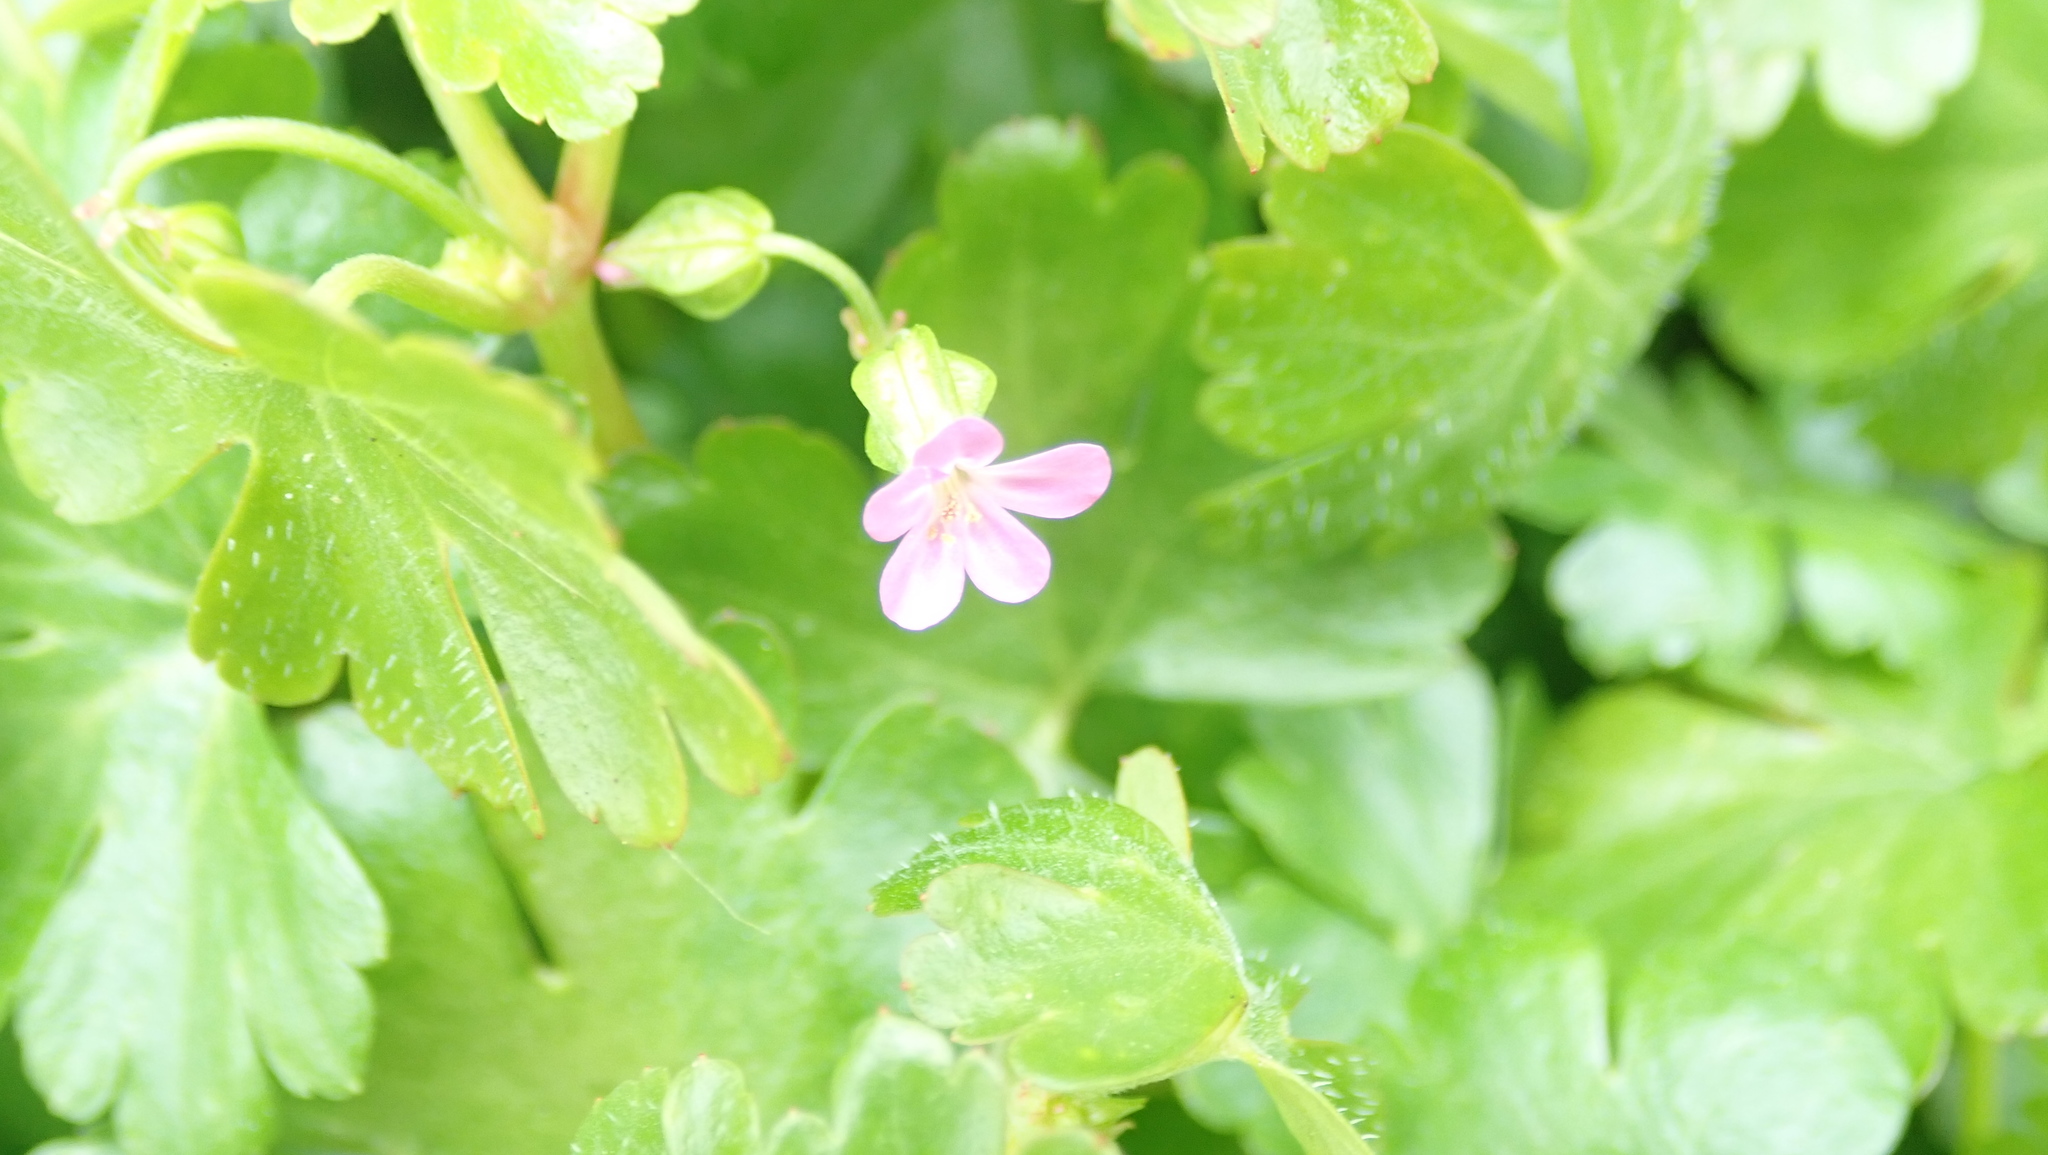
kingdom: Plantae
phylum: Tracheophyta
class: Magnoliopsida
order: Geraniales
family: Geraniaceae
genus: Geranium
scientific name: Geranium lucidum
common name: Shining crane's-bill
